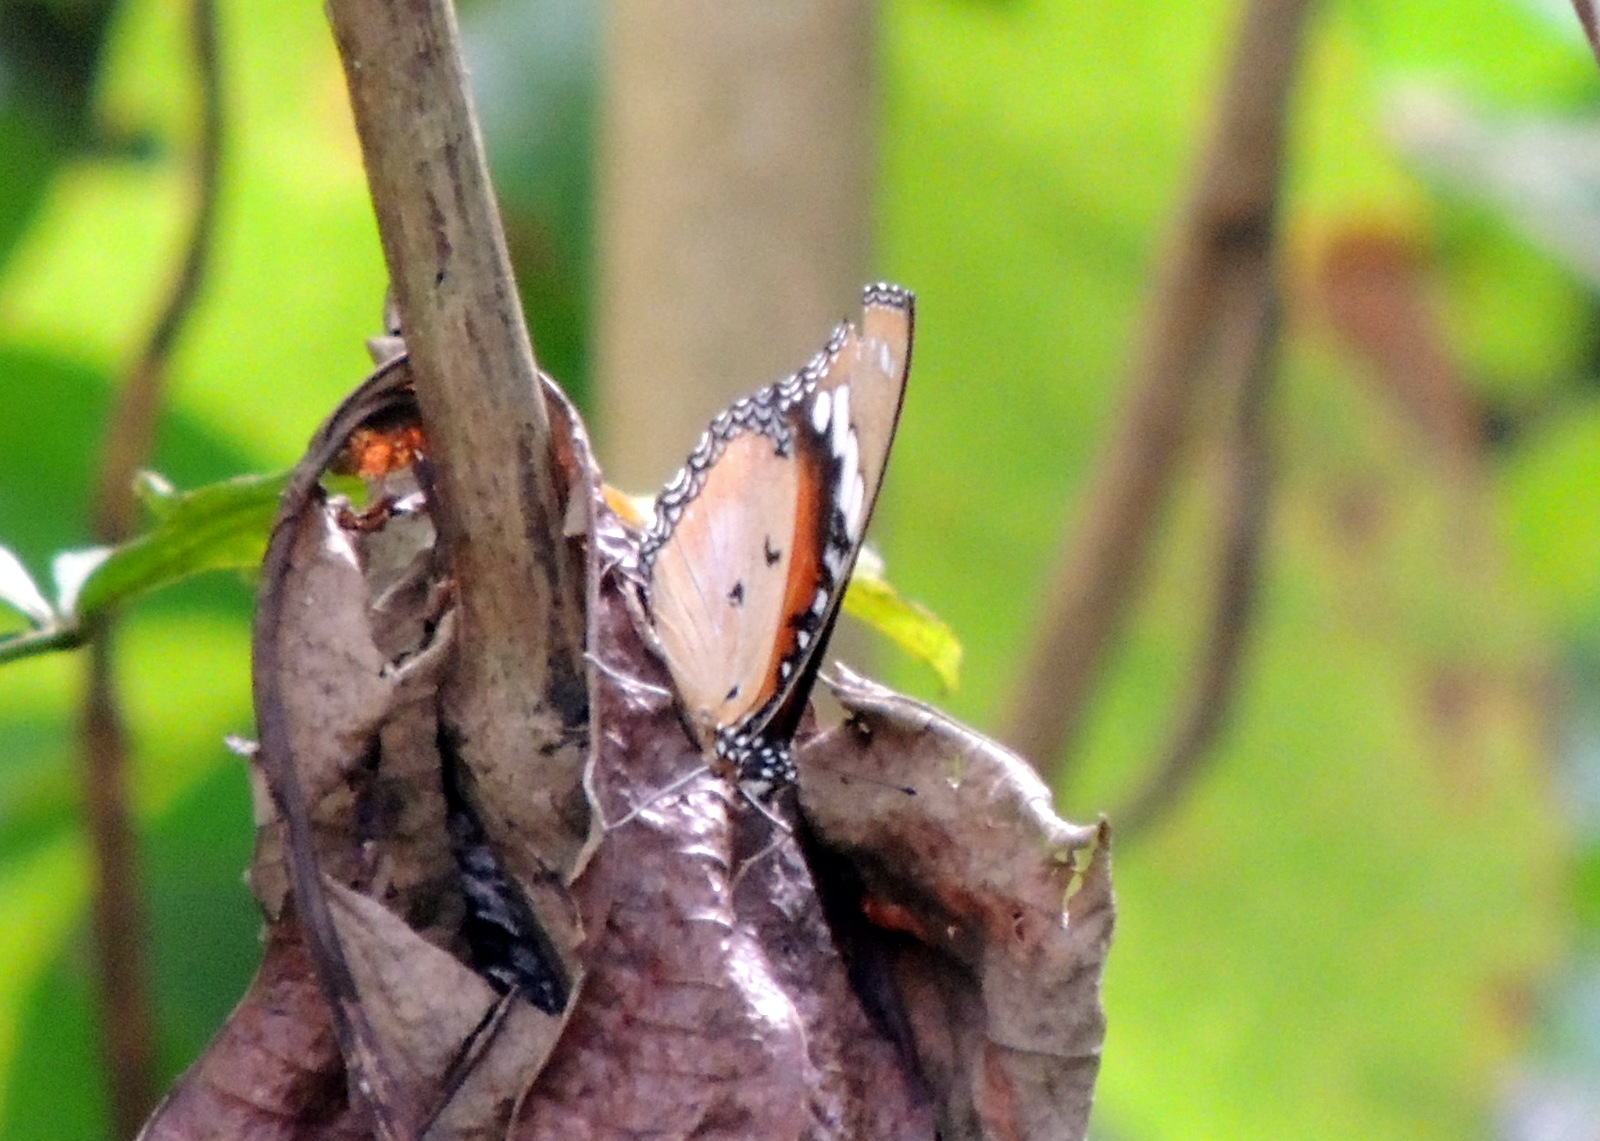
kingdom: Animalia
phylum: Arthropoda
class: Insecta
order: Lepidoptera
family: Nymphalidae
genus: Hypolimnas
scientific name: Hypolimnas misippus
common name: False plain tiger
